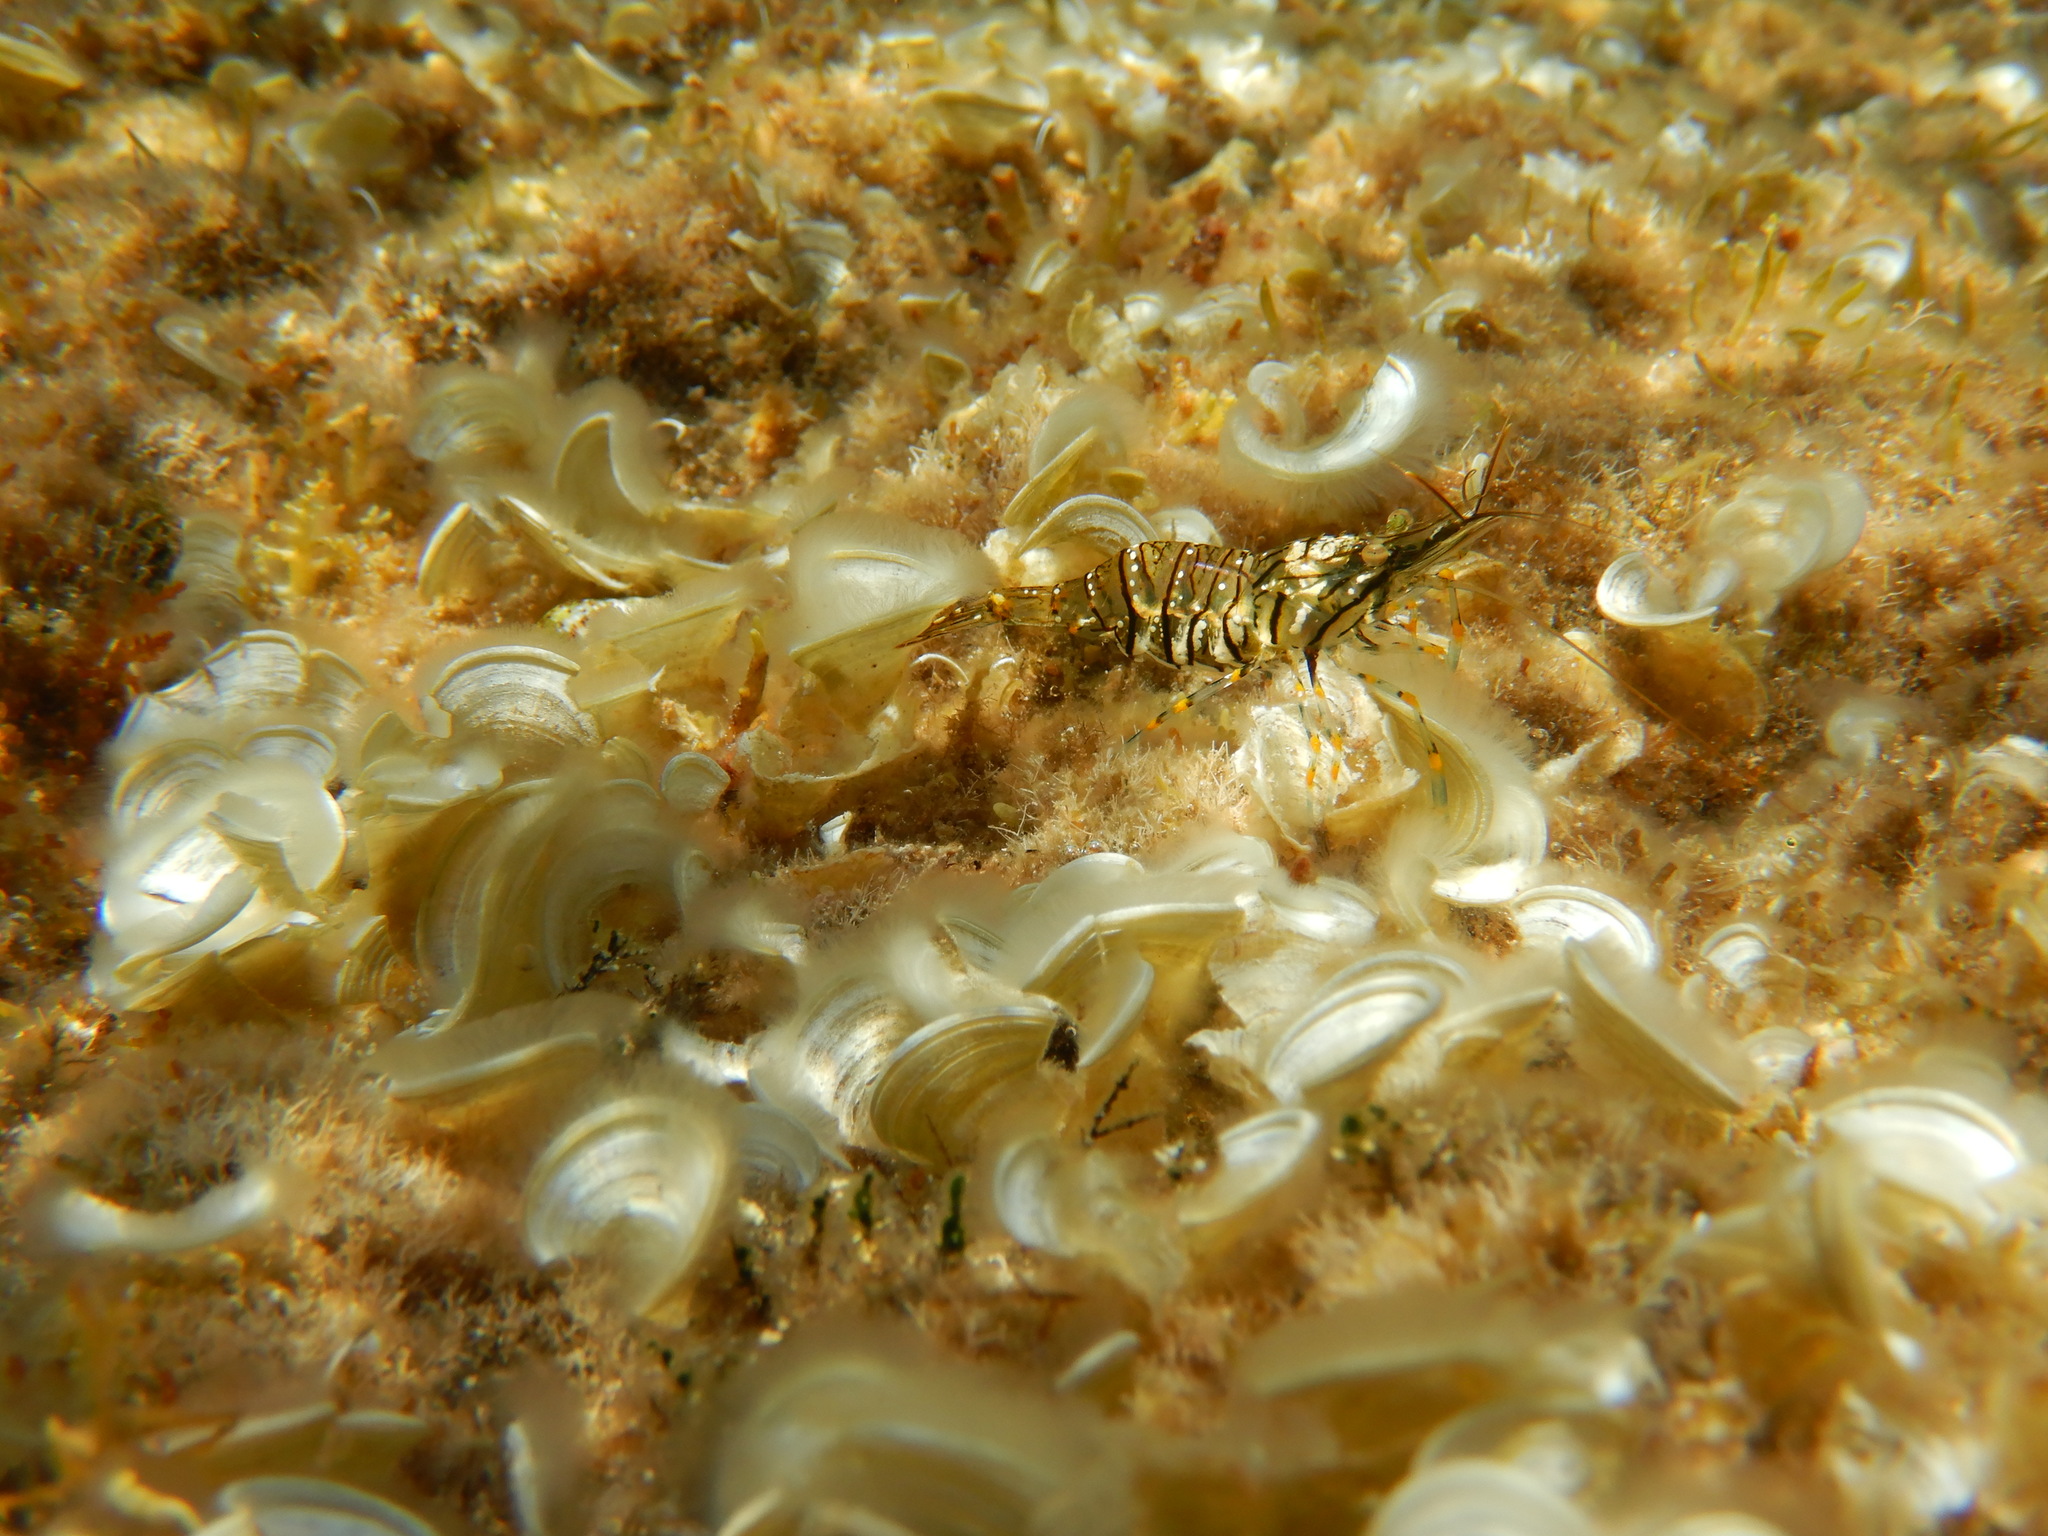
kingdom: Animalia
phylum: Arthropoda
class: Malacostraca
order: Decapoda
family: Palaemonidae
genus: Palaemon
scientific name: Palaemon elegans
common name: Grass prawm
